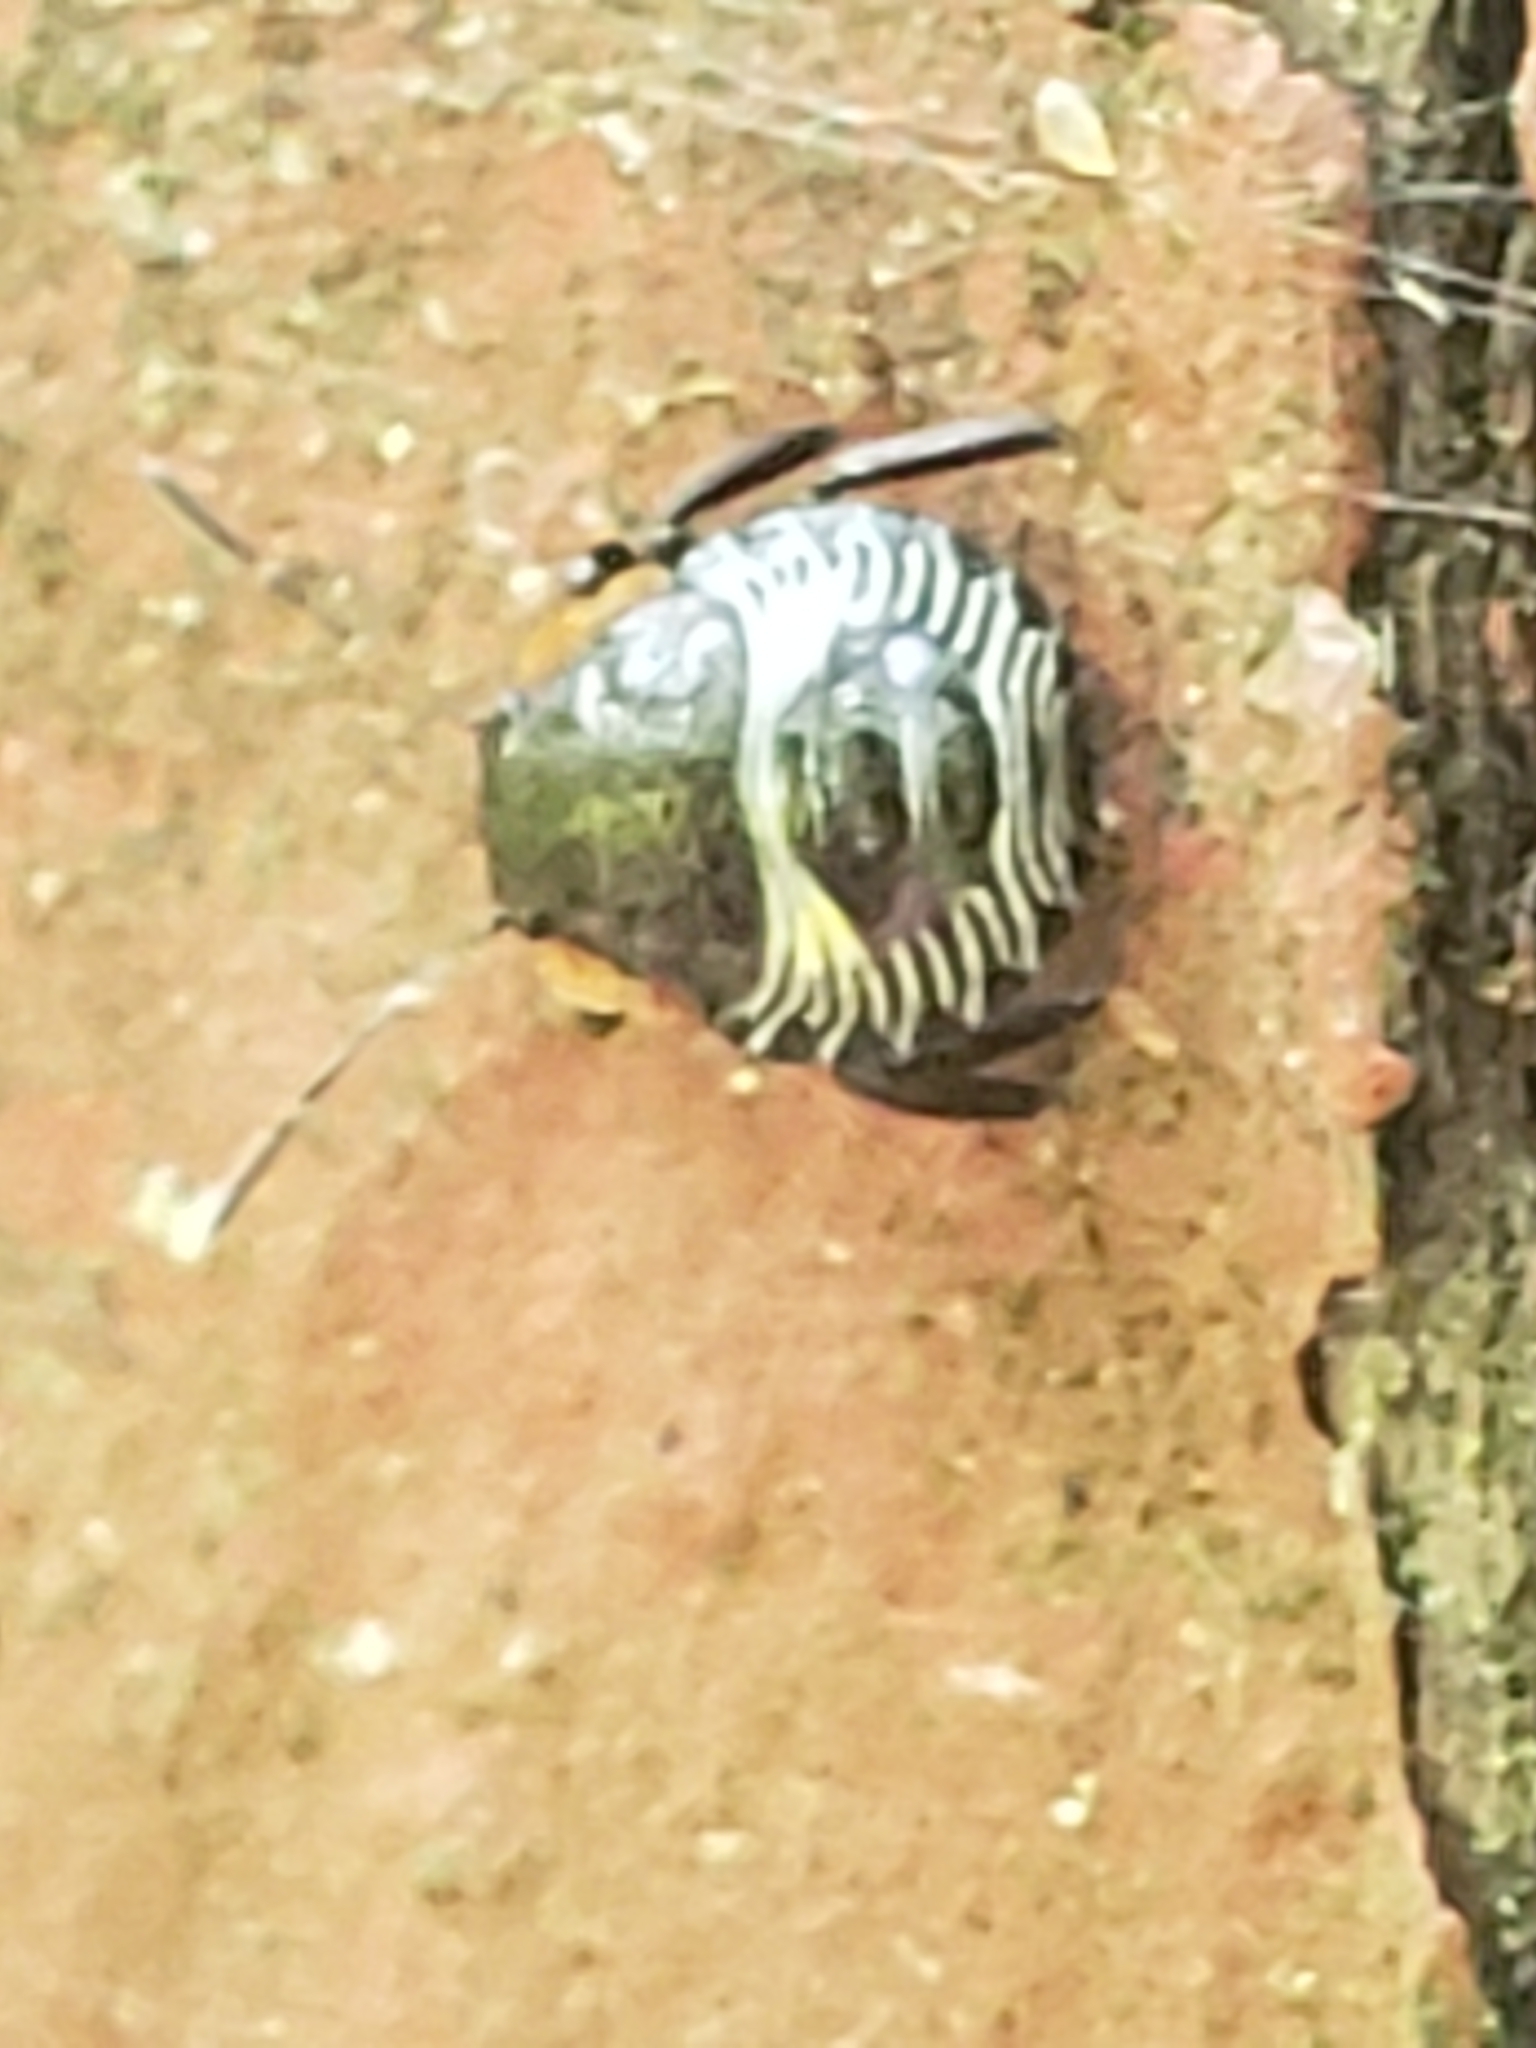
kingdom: Animalia
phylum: Arthropoda
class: Insecta
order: Hemiptera
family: Pentatomidae
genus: Chinavia
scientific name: Chinavia hilaris
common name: Green stink bug
